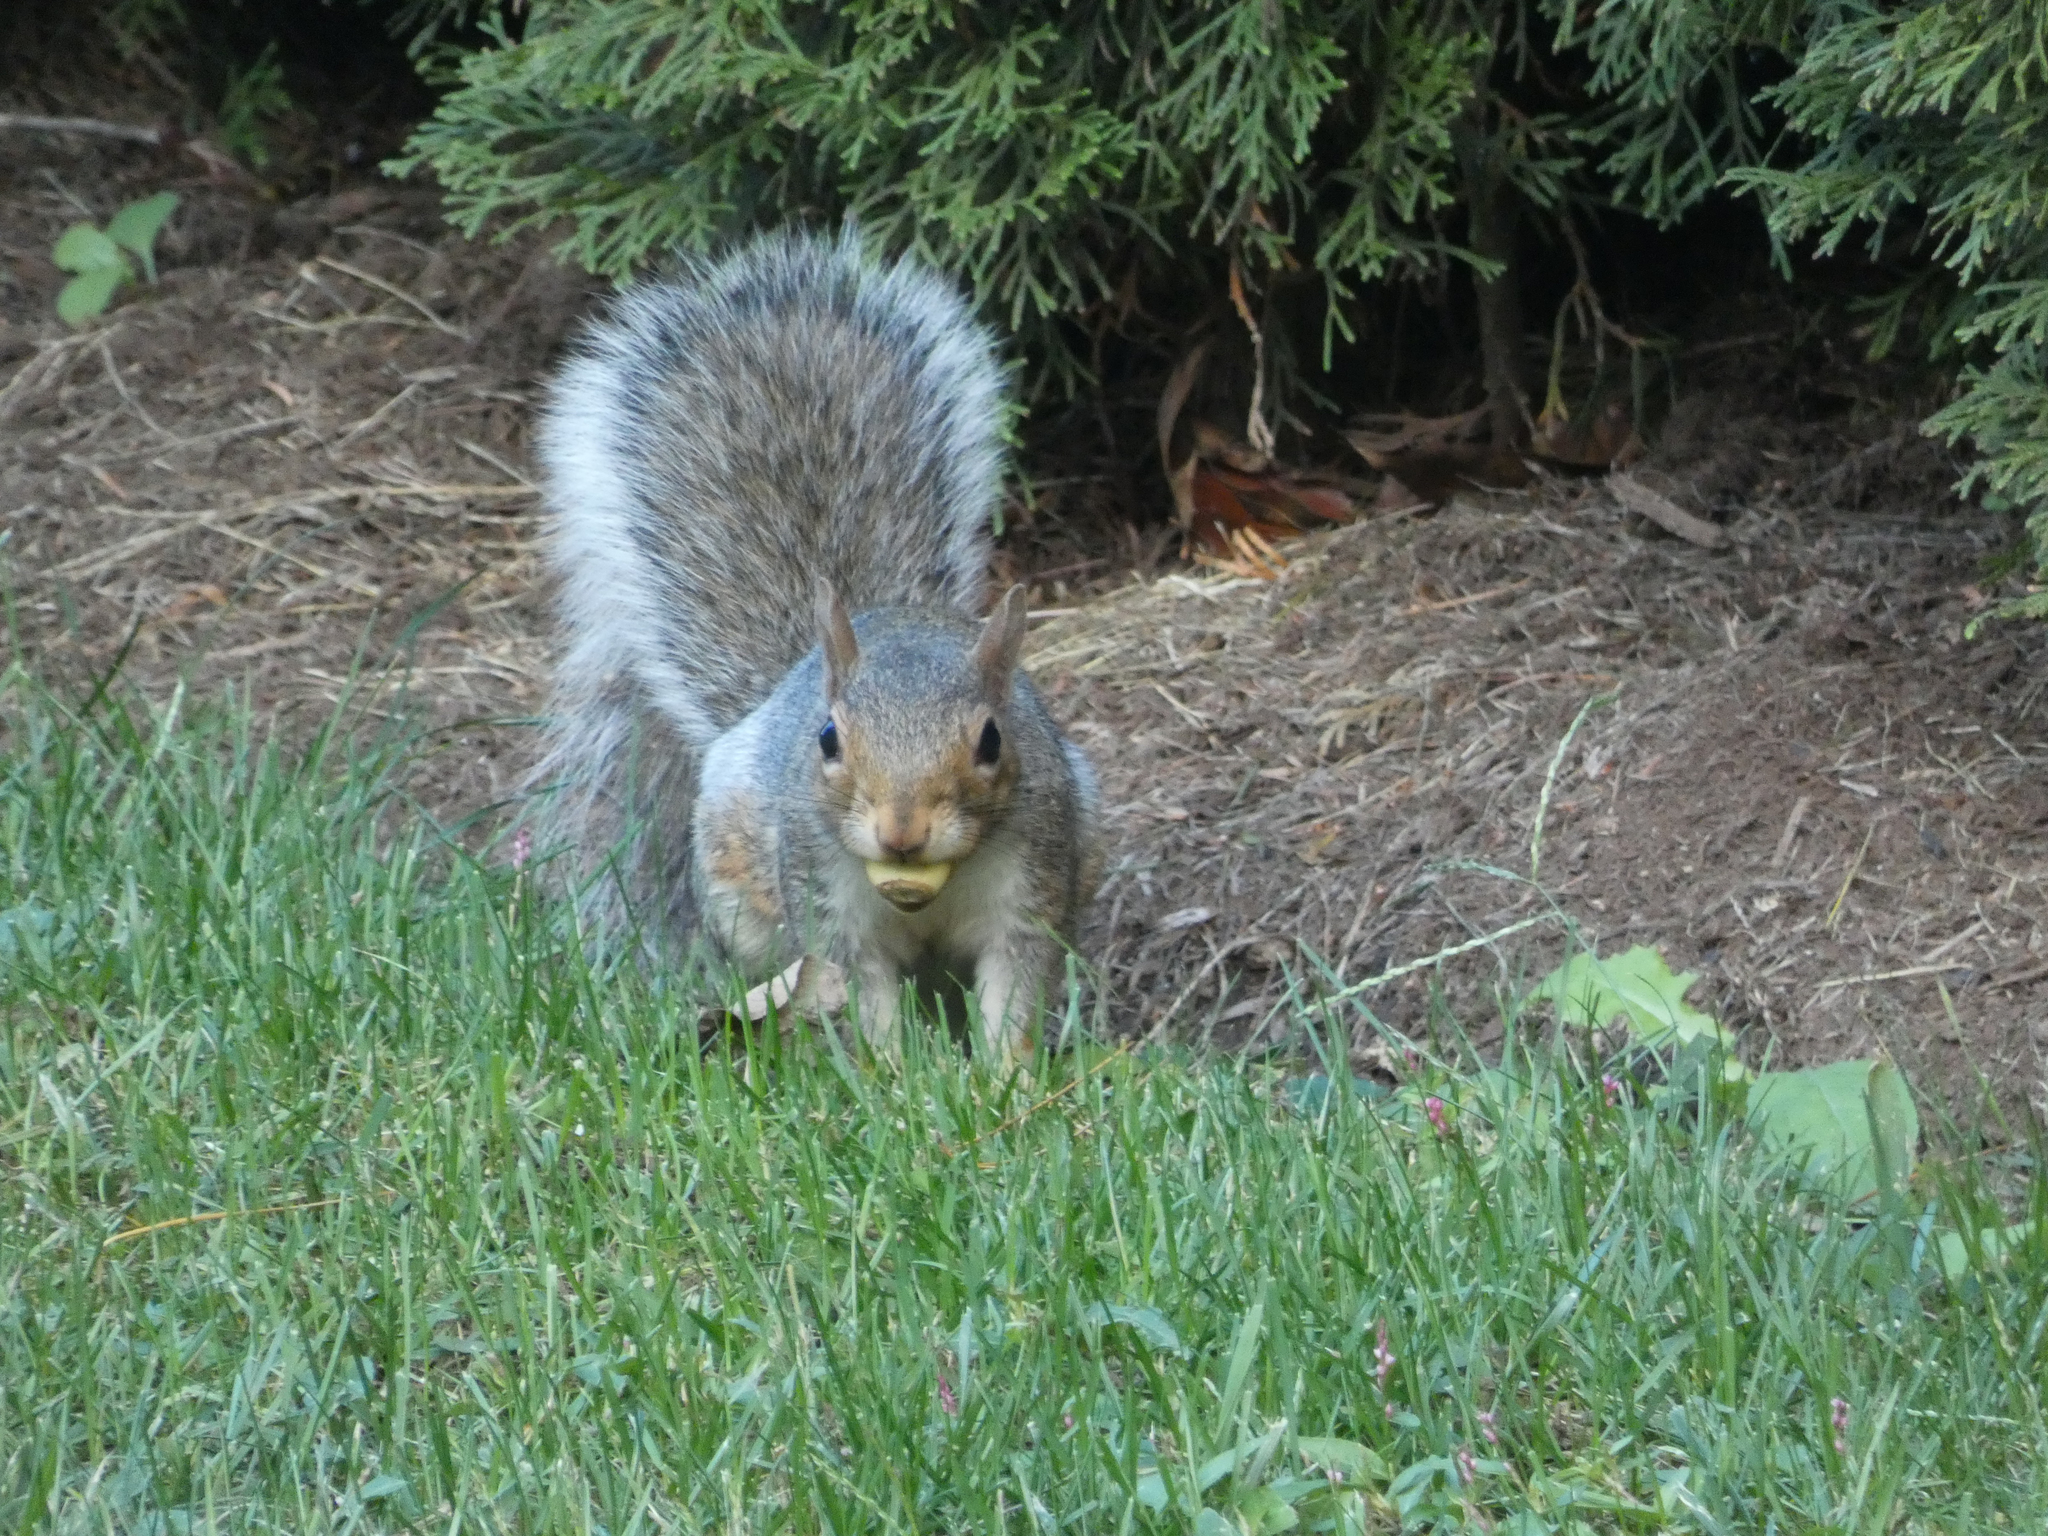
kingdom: Animalia
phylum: Chordata
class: Mammalia
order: Rodentia
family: Sciuridae
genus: Sciurus
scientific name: Sciurus carolinensis
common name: Eastern gray squirrel
